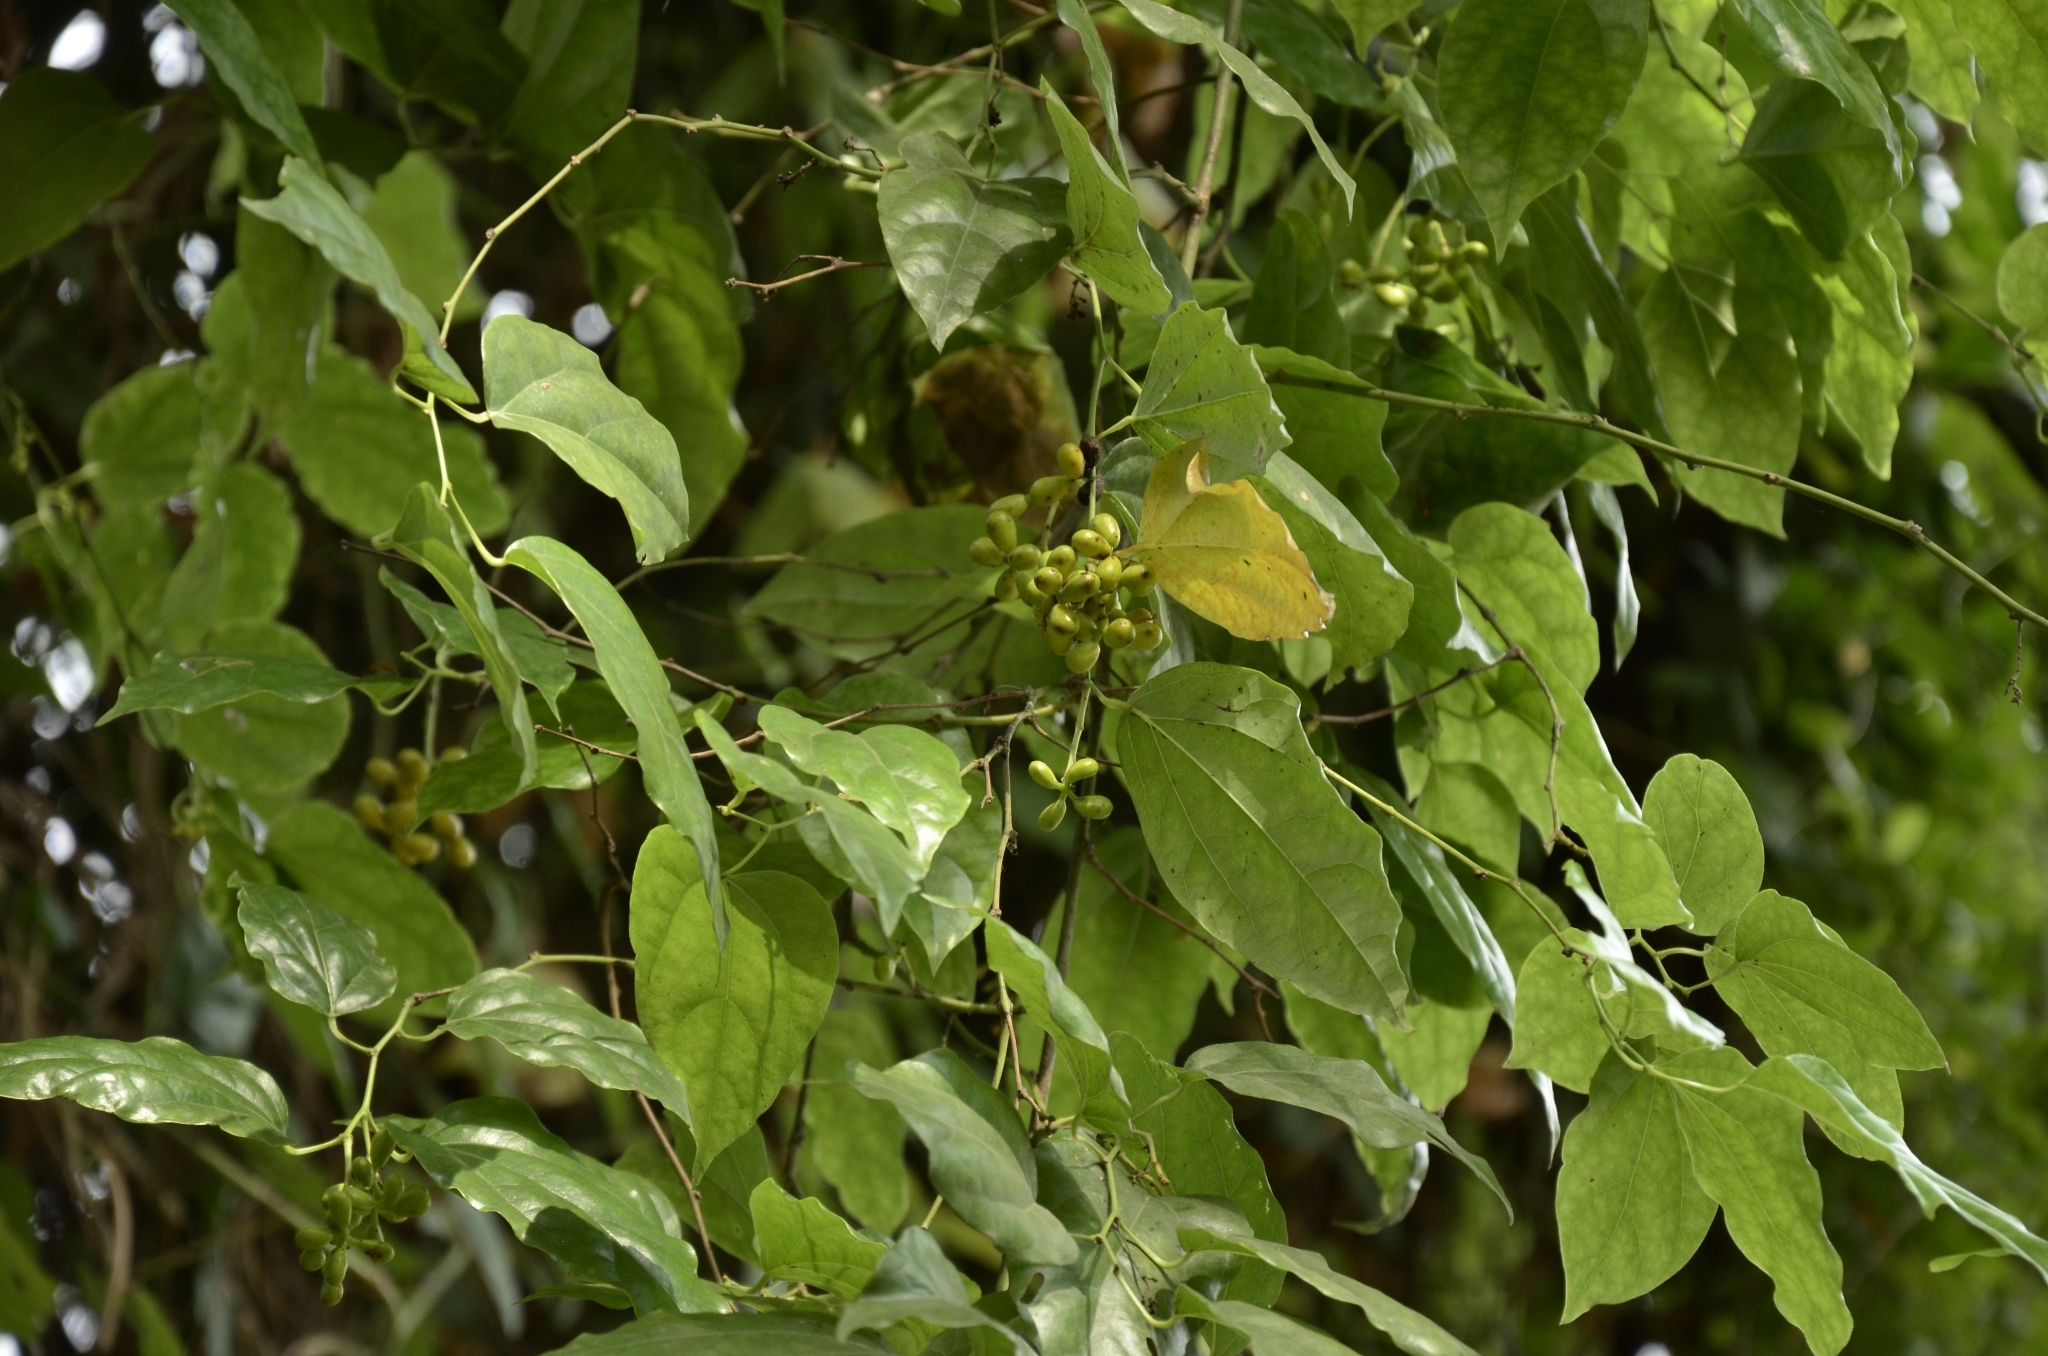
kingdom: Plantae
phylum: Tracheophyta
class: Magnoliopsida
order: Ranunculales
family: Menispermaceae
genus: Tiliacora
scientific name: Tiliacora acuminata
